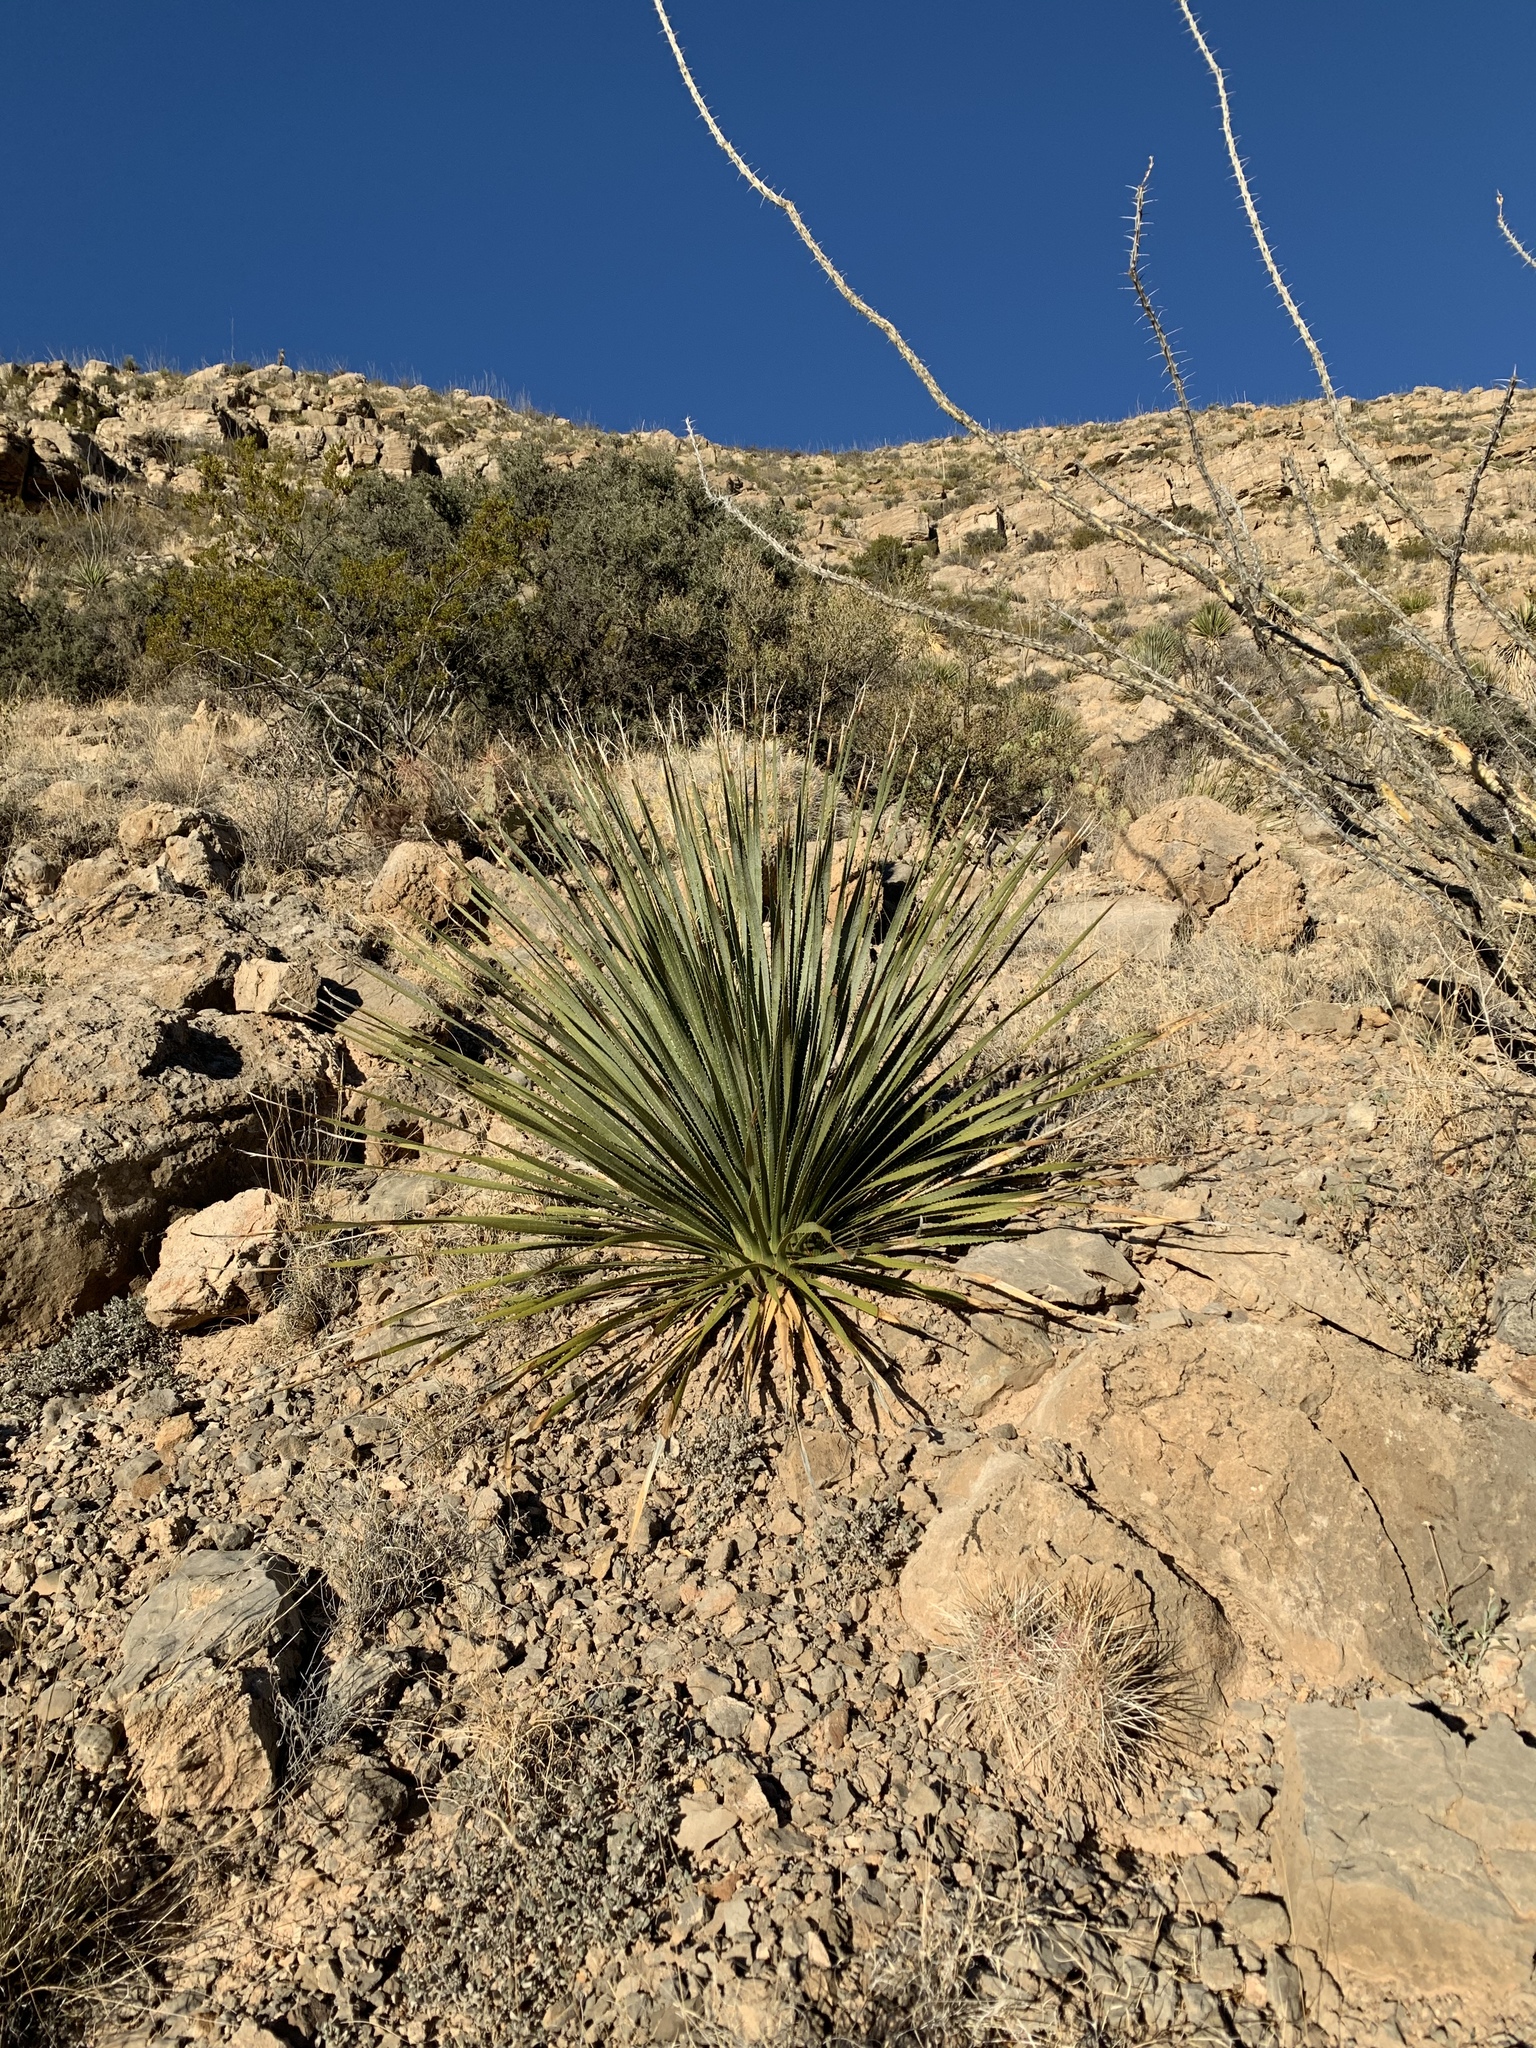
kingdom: Plantae
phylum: Tracheophyta
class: Liliopsida
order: Asparagales
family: Asparagaceae
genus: Dasylirion
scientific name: Dasylirion wheeleri
